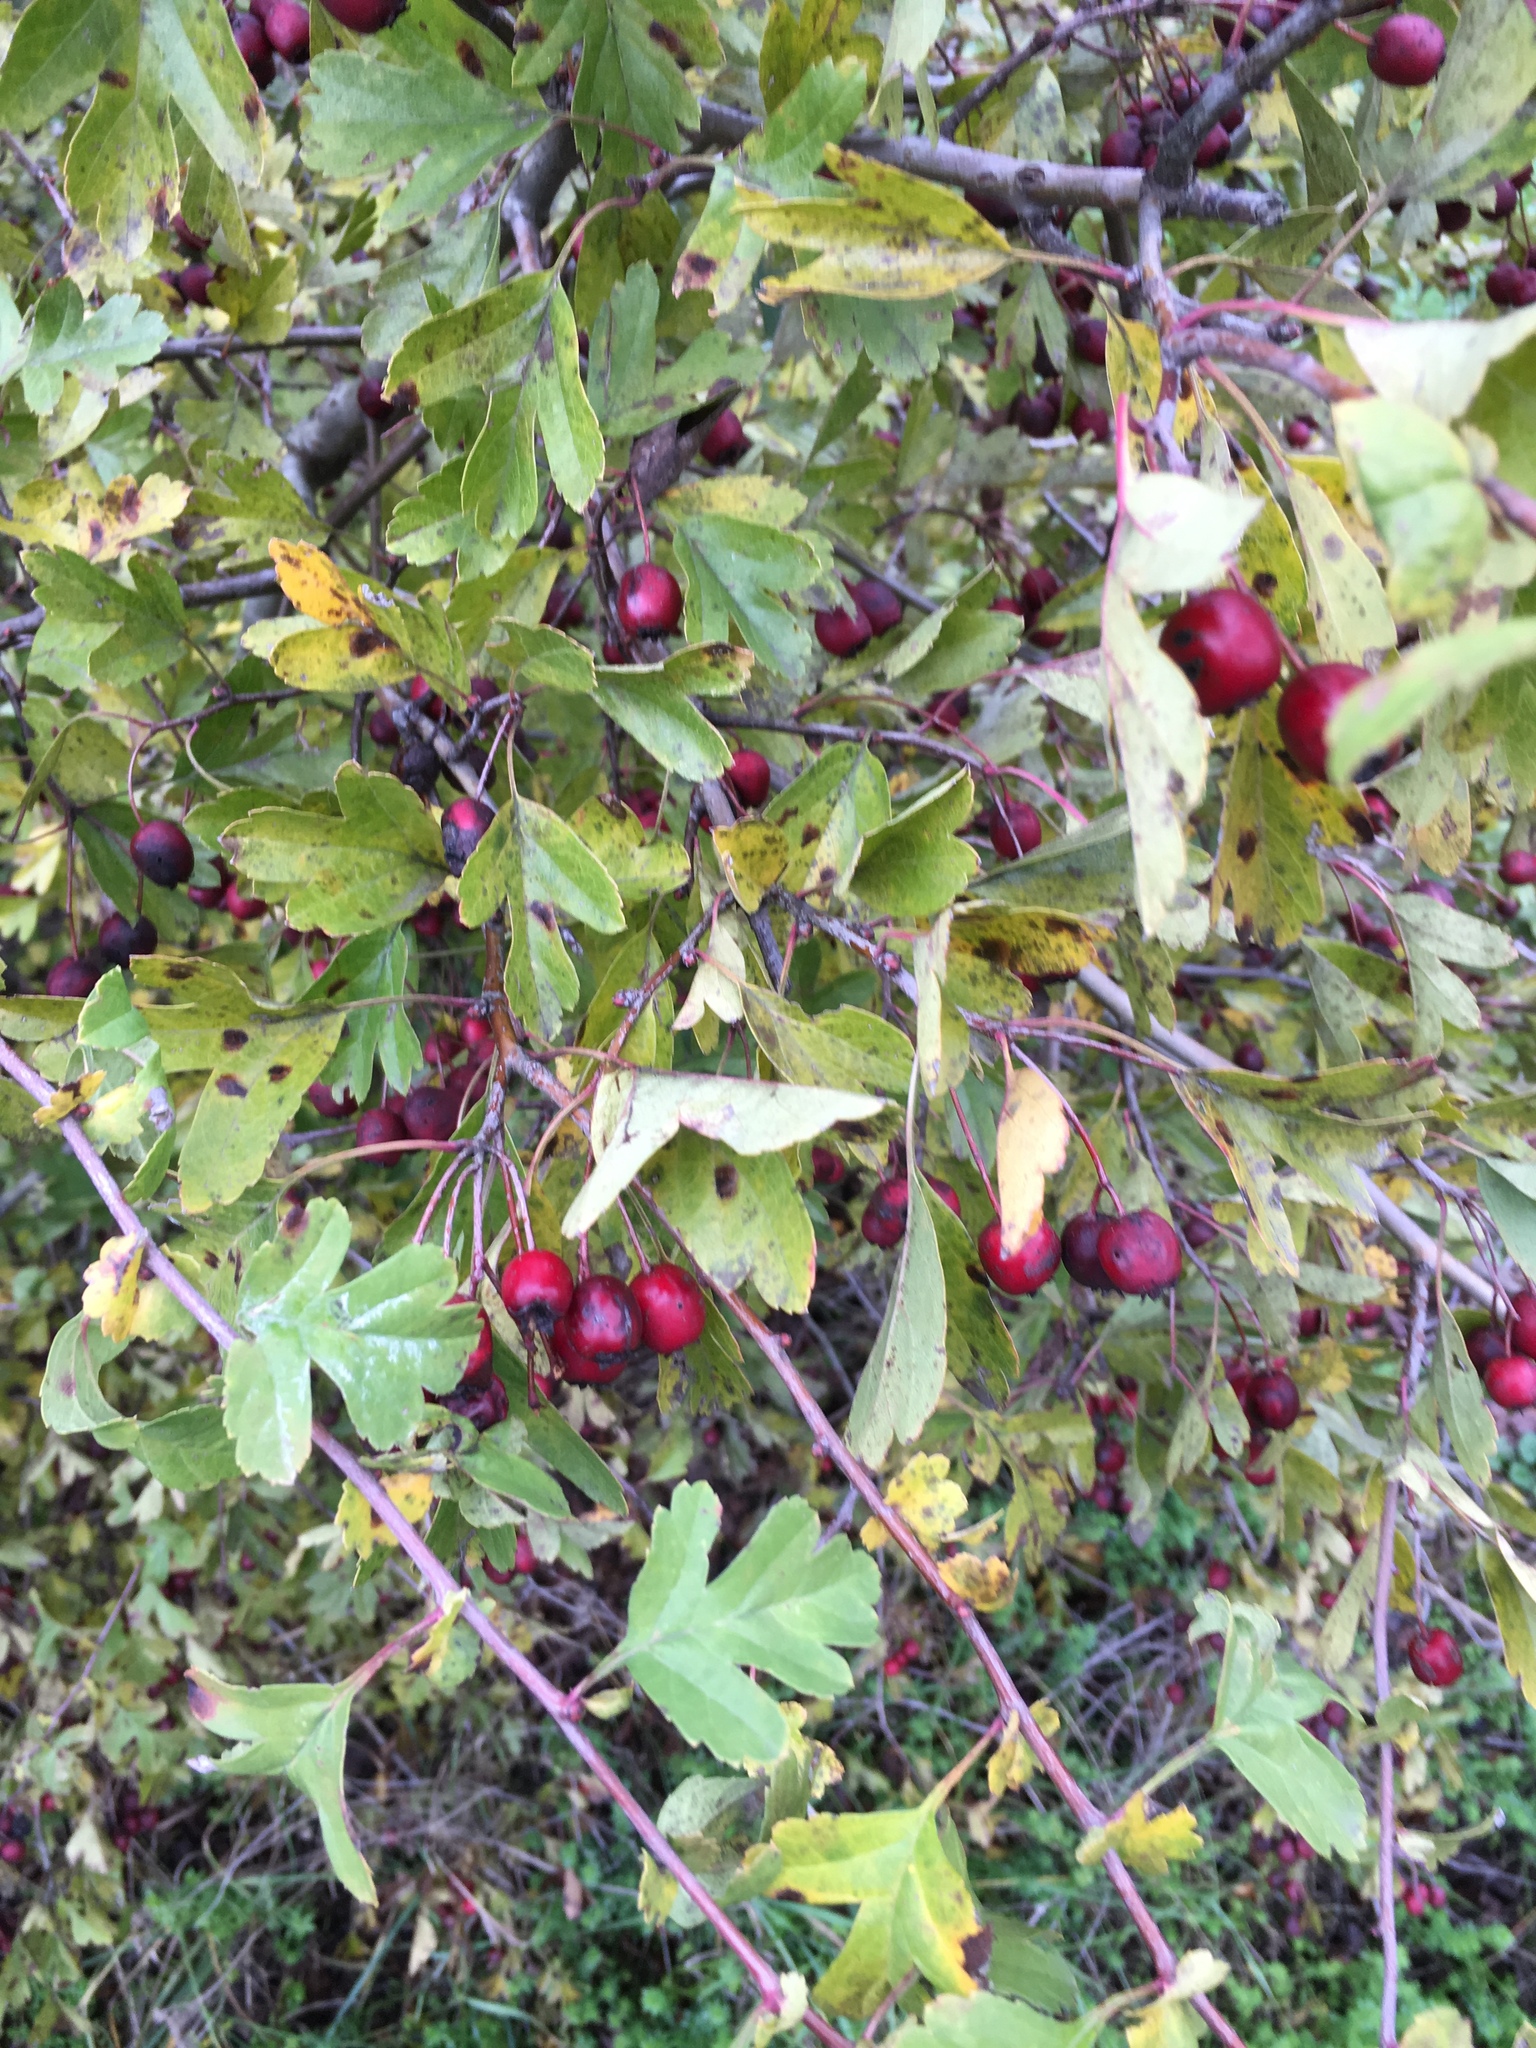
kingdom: Plantae
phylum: Tracheophyta
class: Magnoliopsida
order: Rosales
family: Rosaceae
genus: Crataegus
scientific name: Crataegus monogyna
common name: Hawthorn
